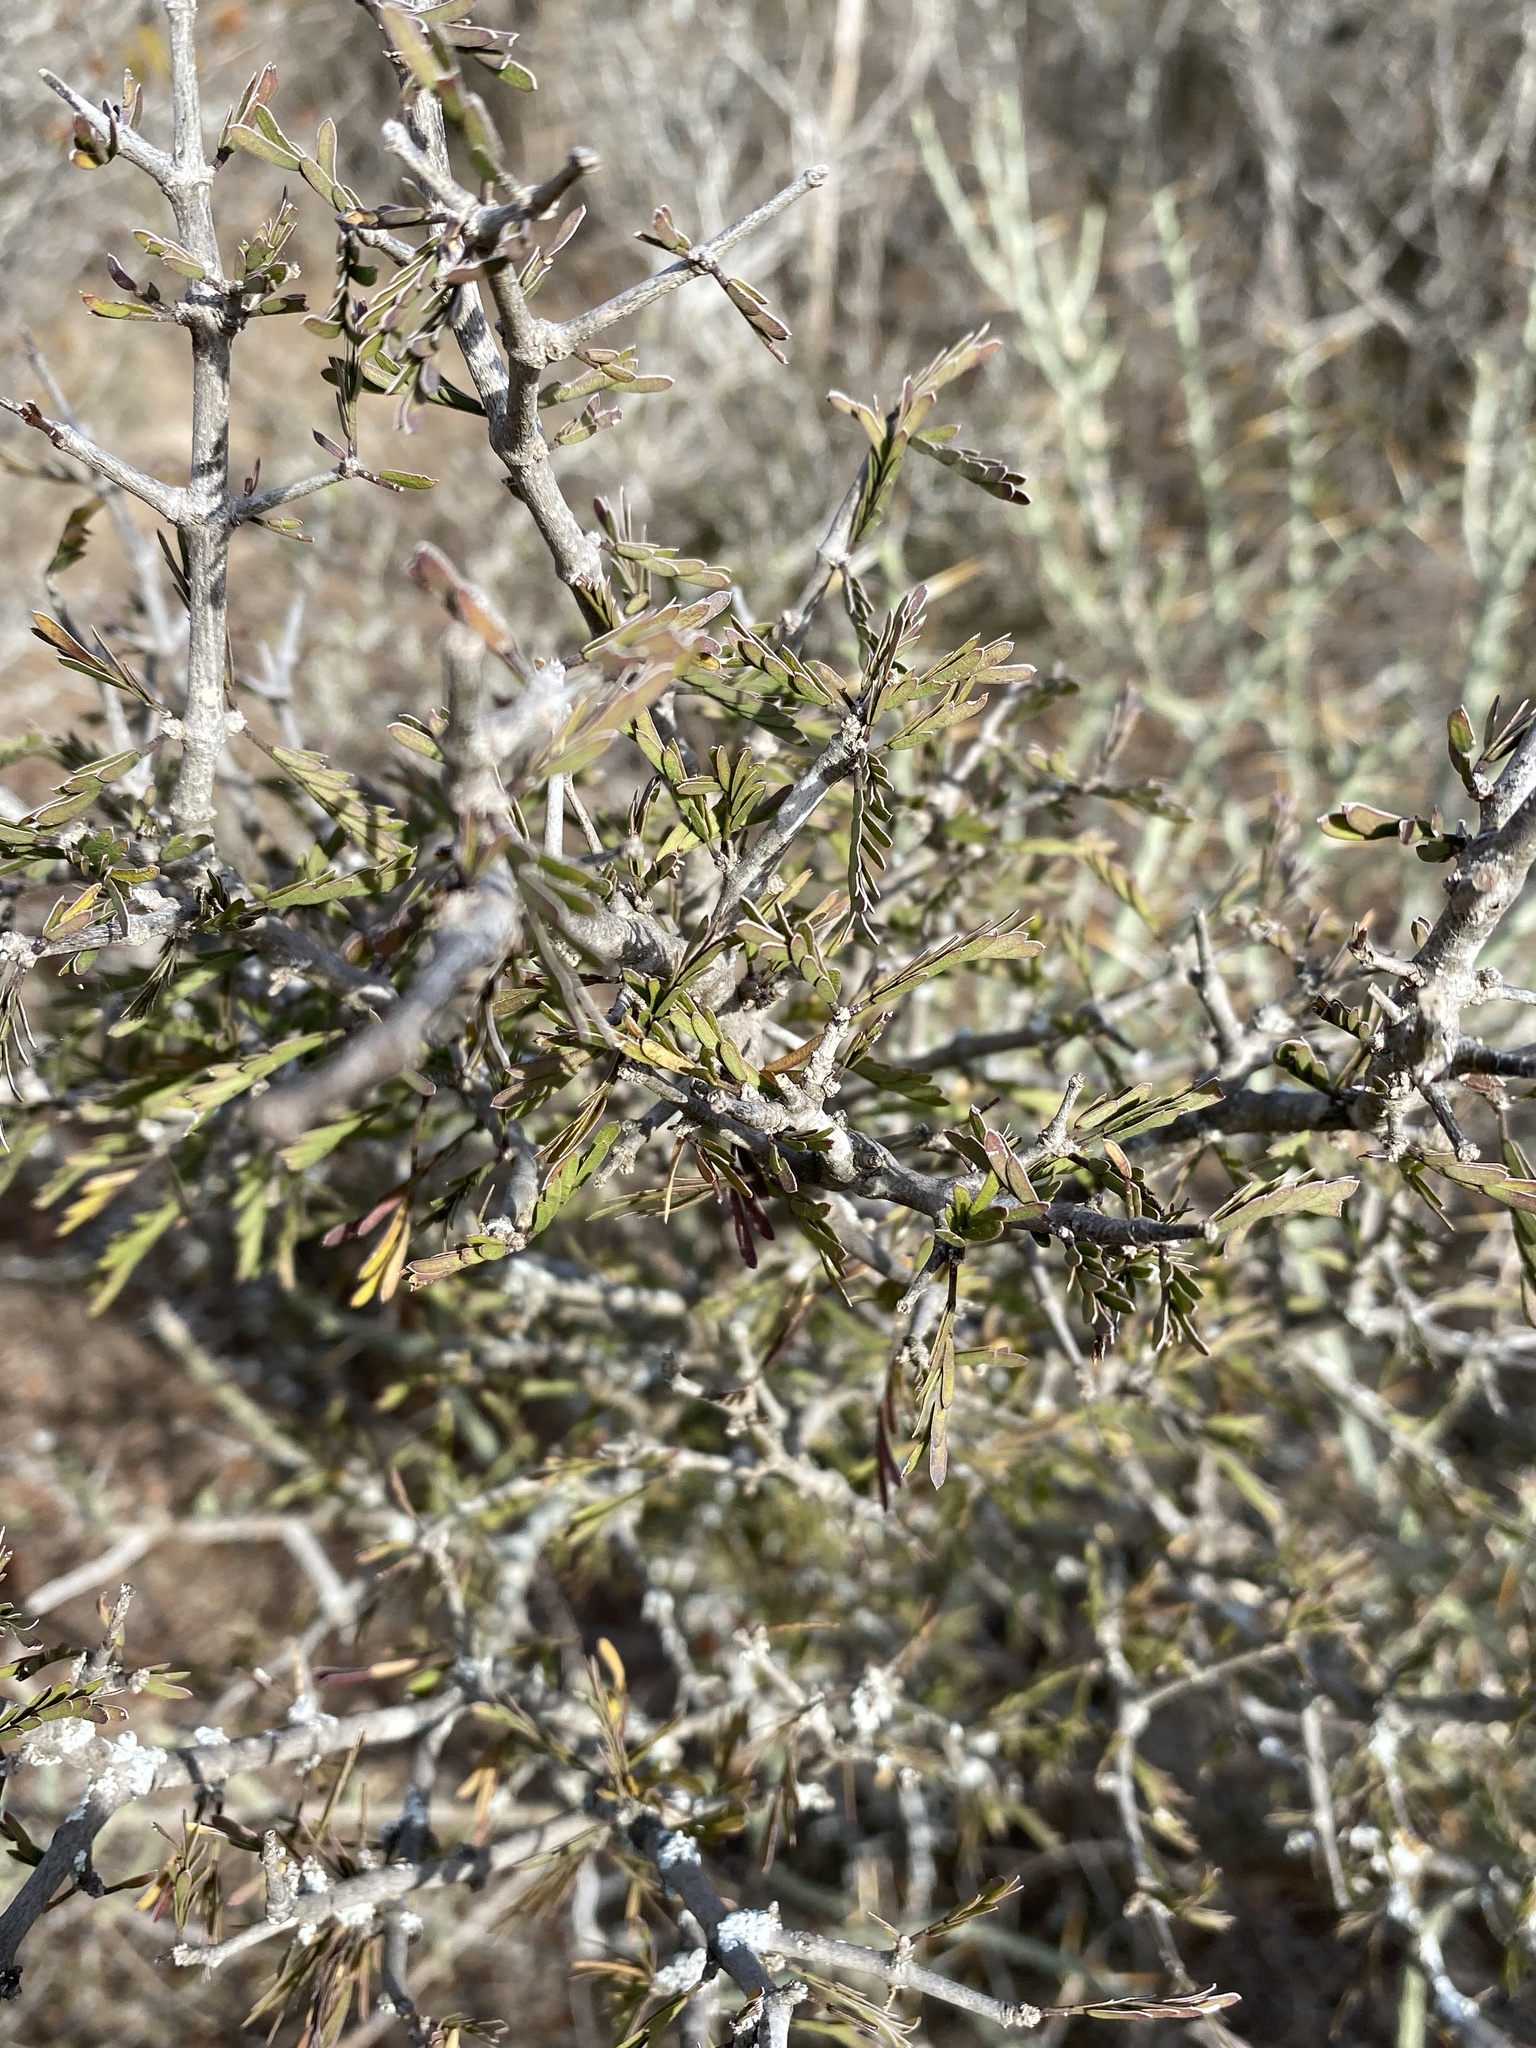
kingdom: Plantae
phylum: Tracheophyta
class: Magnoliopsida
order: Zygophyllales
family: Zygophyllaceae
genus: Porlieria
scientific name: Porlieria angustifolia
